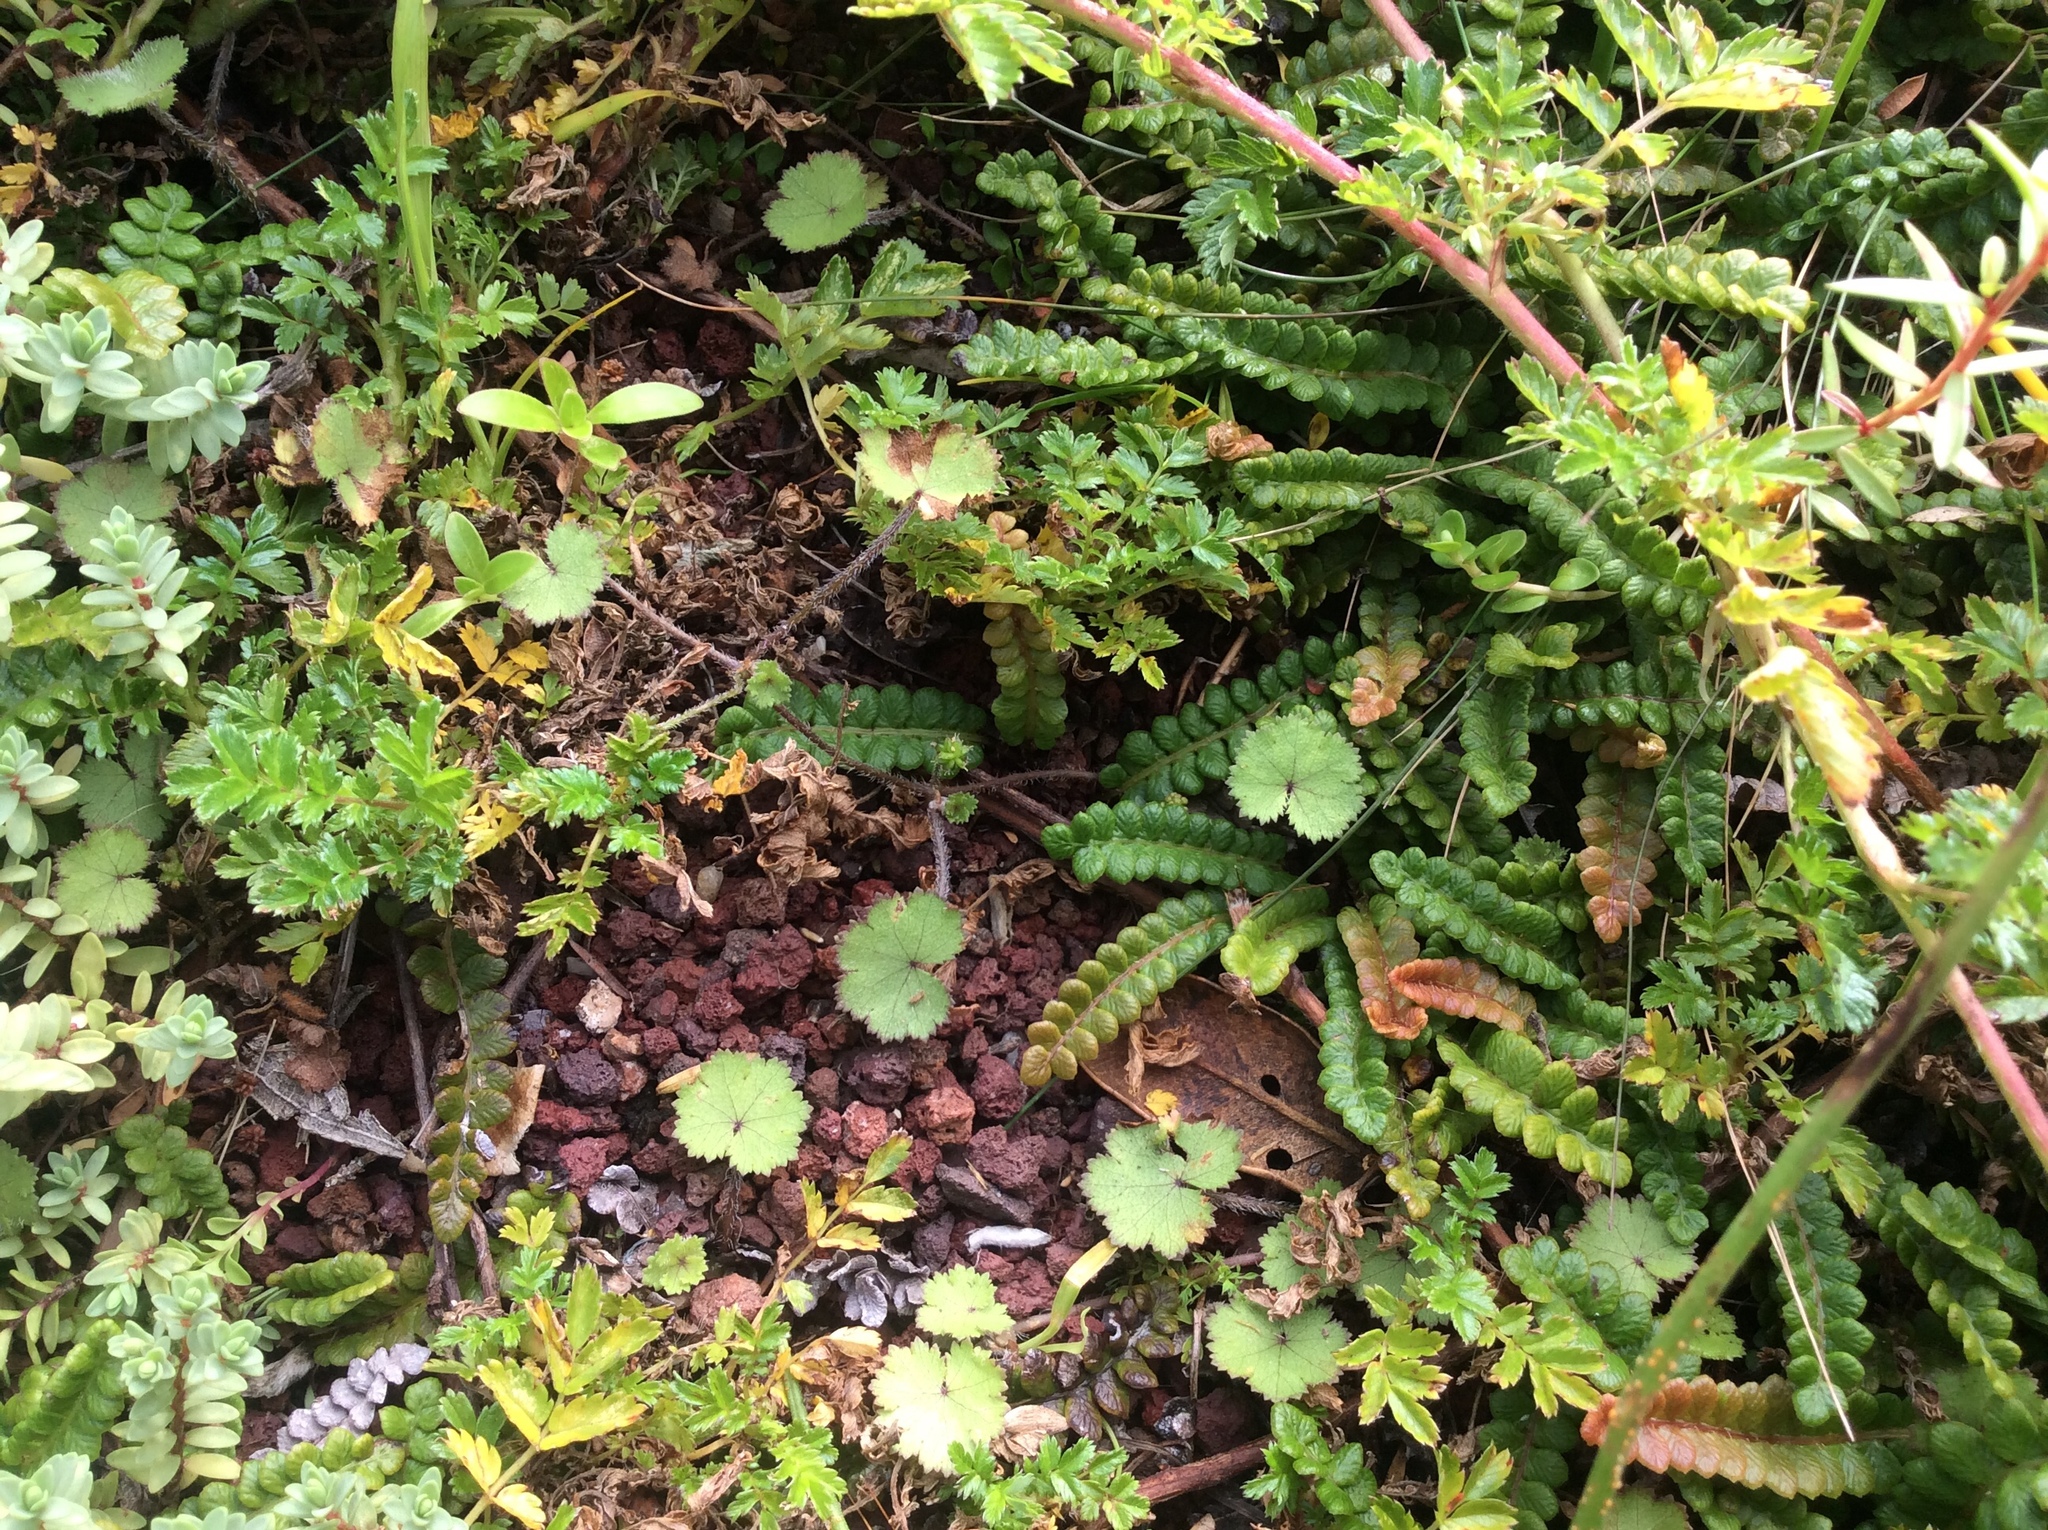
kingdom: Plantae
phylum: Tracheophyta
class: Magnoliopsida
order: Apiales
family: Araliaceae
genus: Hydrocotyle
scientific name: Hydrocotyle moschata
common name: Hairy pennywort
